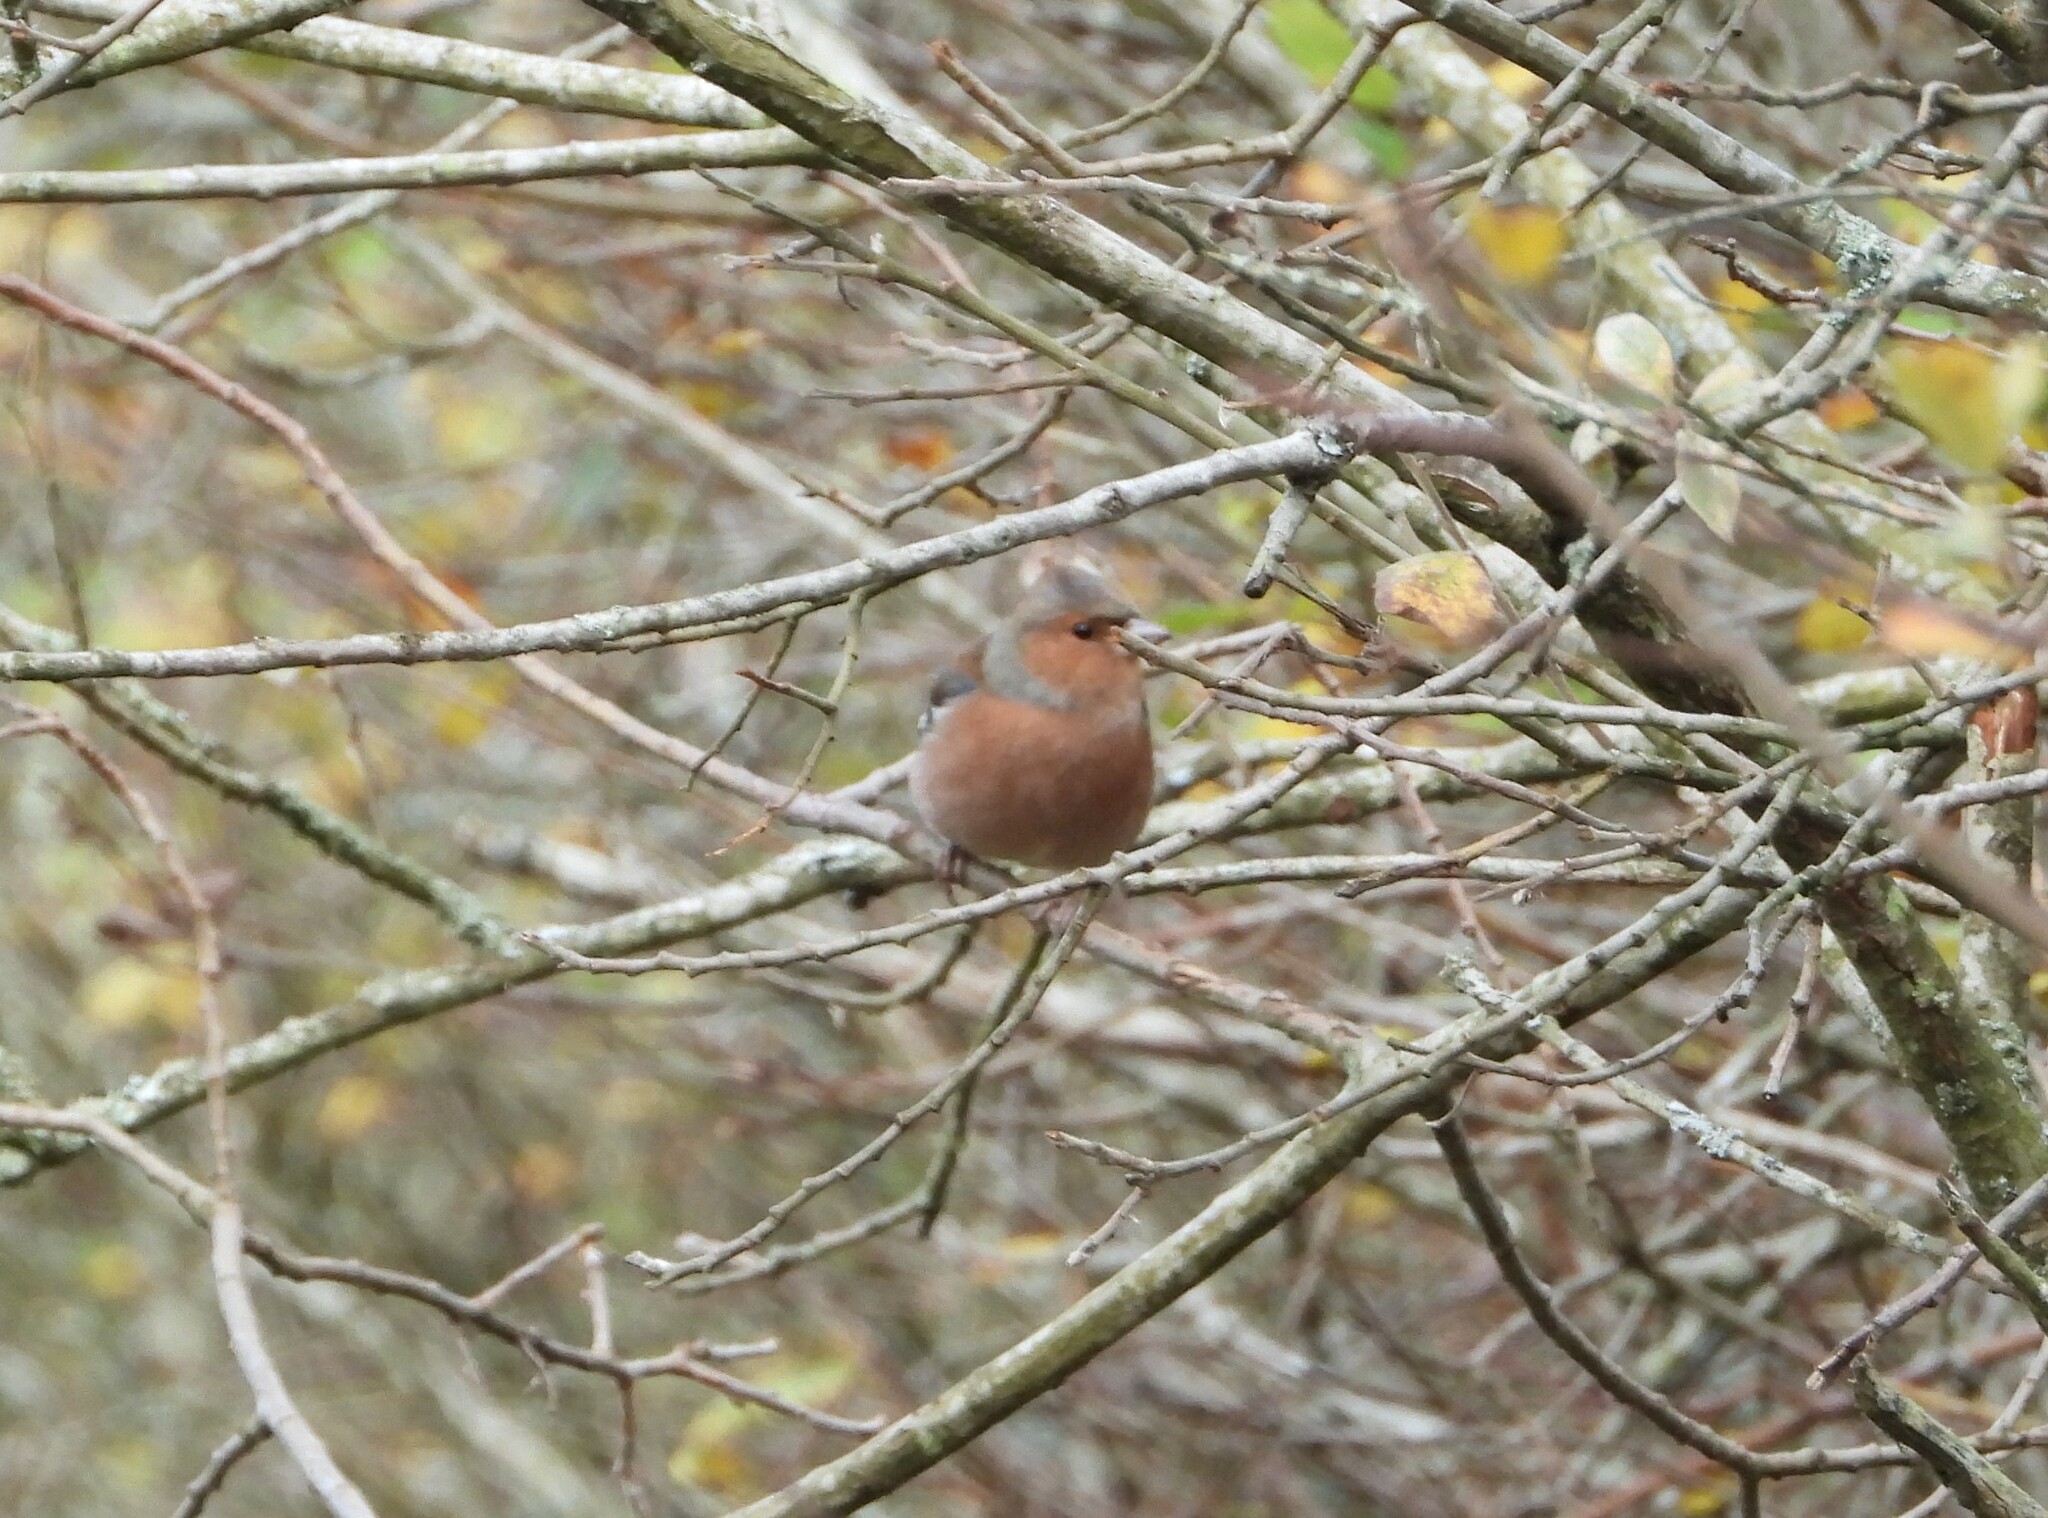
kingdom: Animalia
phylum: Chordata
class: Aves
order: Passeriformes
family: Fringillidae
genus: Fringilla
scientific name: Fringilla coelebs
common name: Common chaffinch
